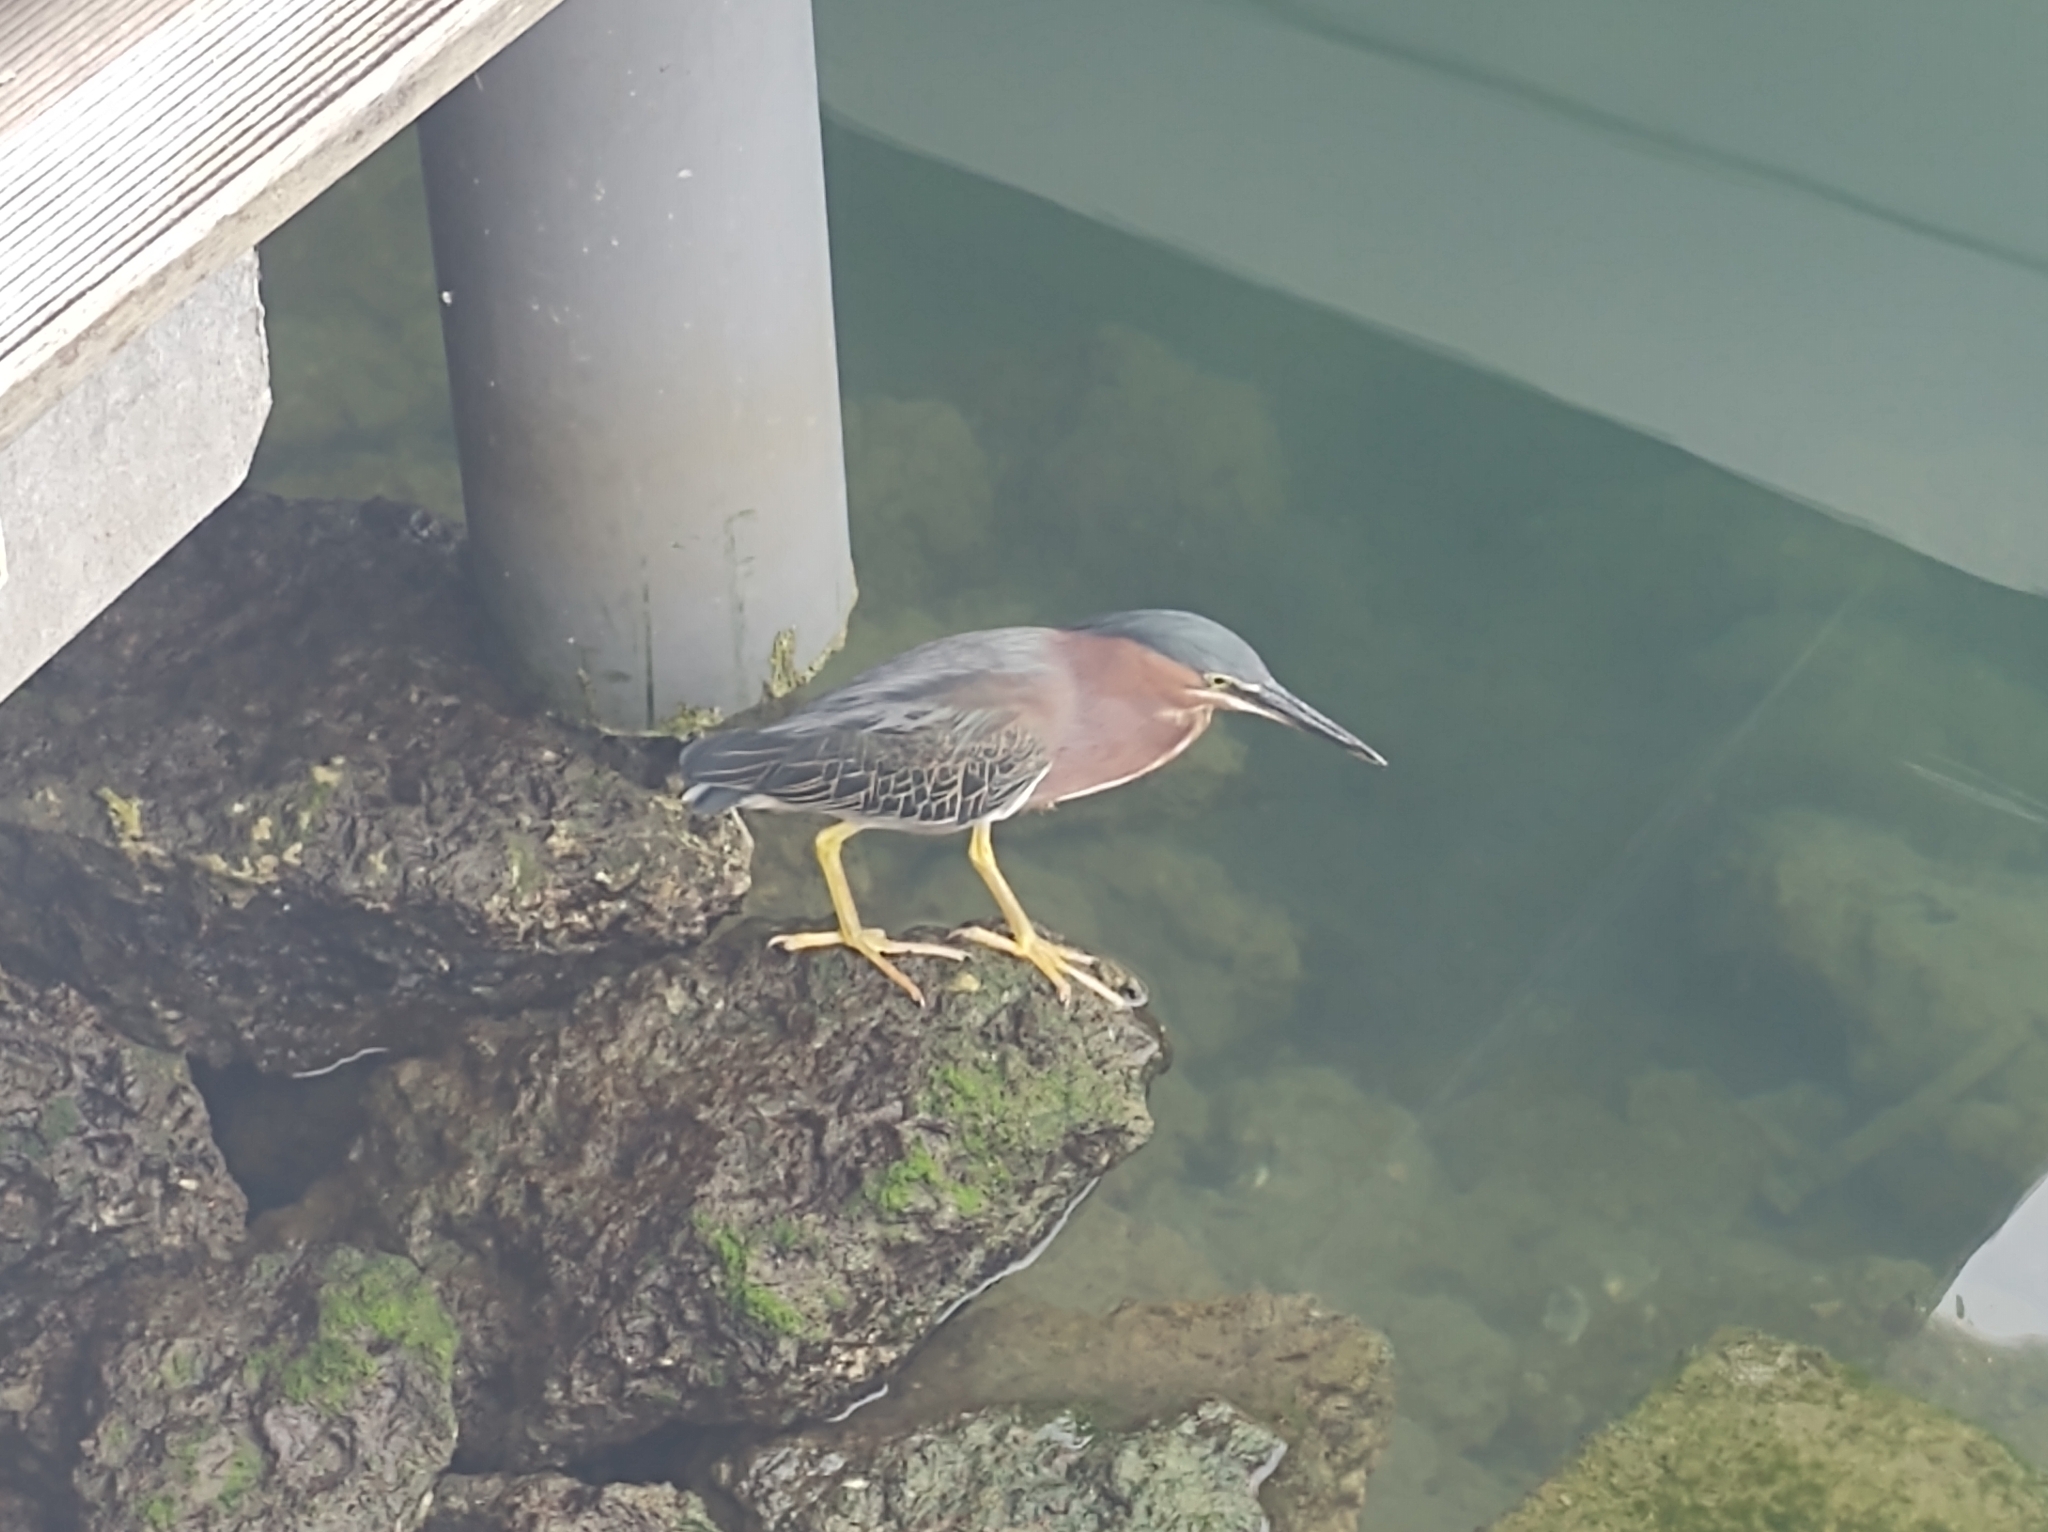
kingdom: Animalia
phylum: Chordata
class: Aves
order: Pelecaniformes
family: Ardeidae
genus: Butorides
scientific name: Butorides virescens
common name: Green heron
